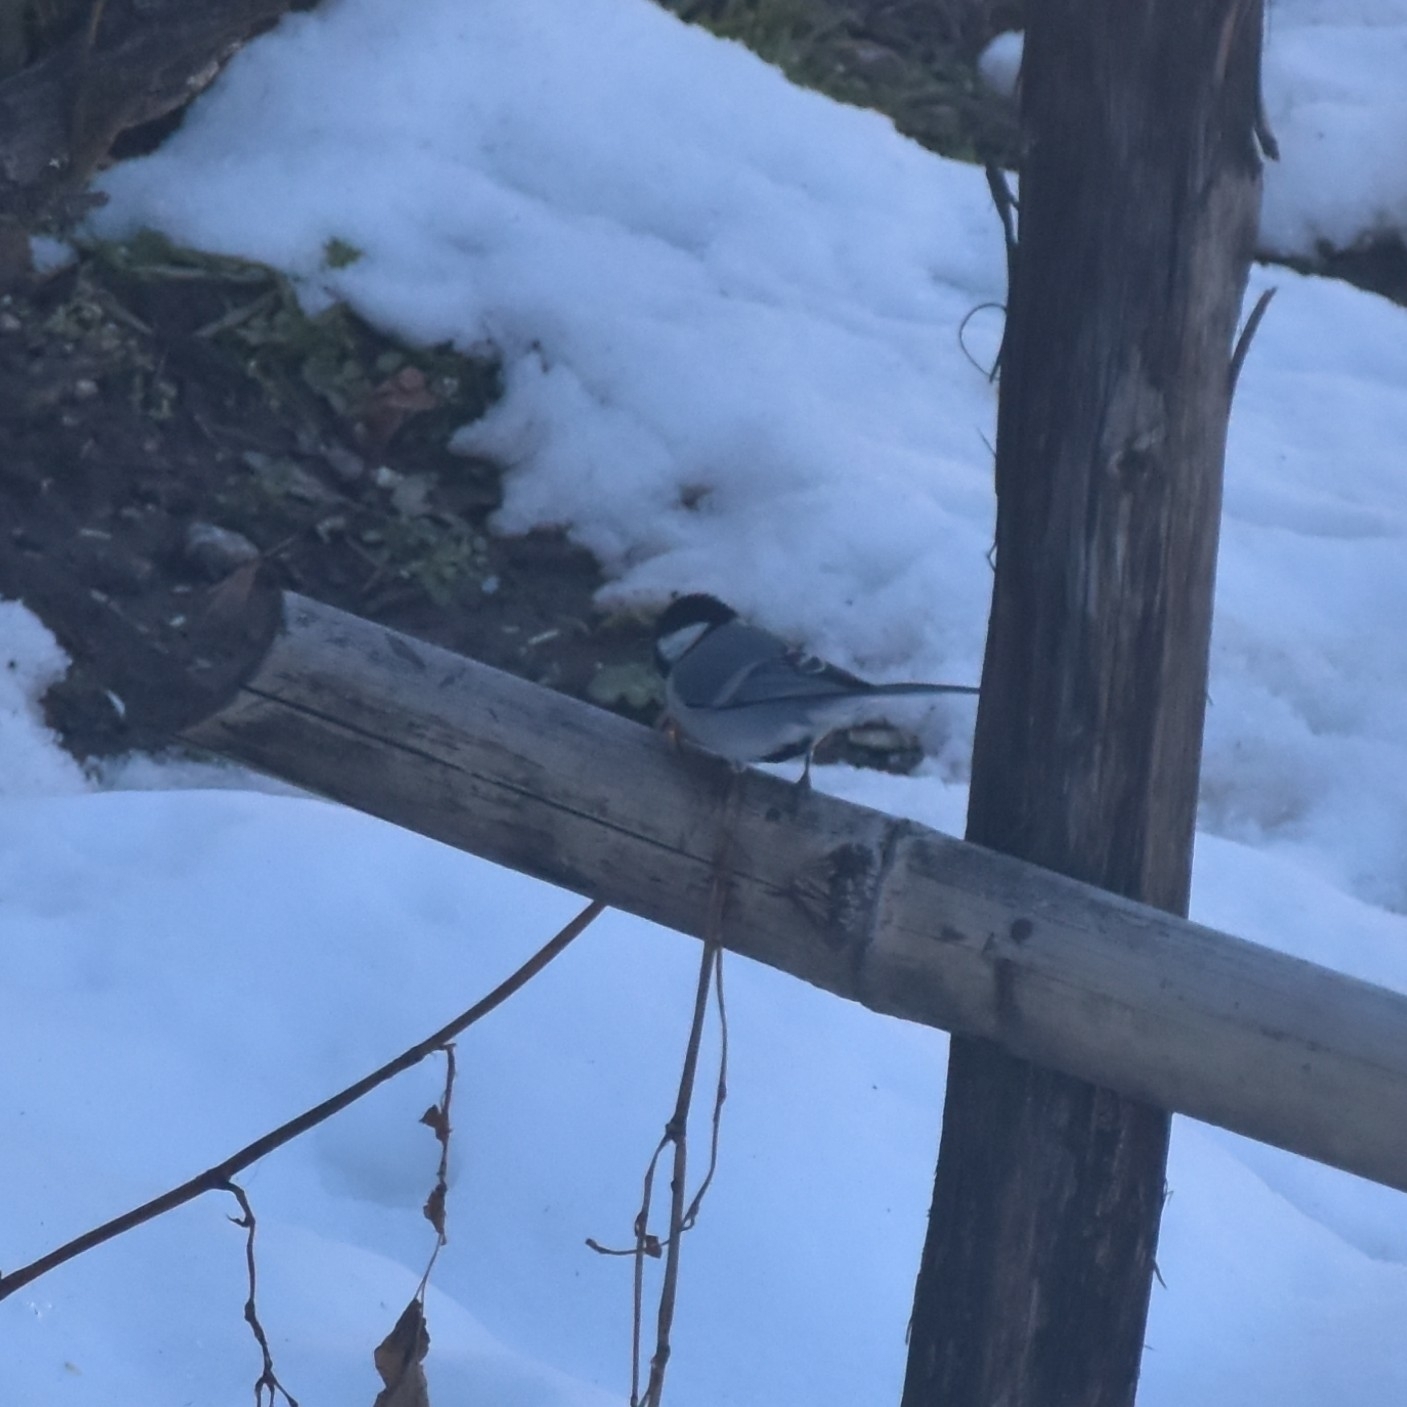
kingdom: Animalia
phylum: Chordata
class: Aves
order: Passeriformes
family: Paridae
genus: Parus
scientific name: Parus cinereus
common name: Cinereous tit
